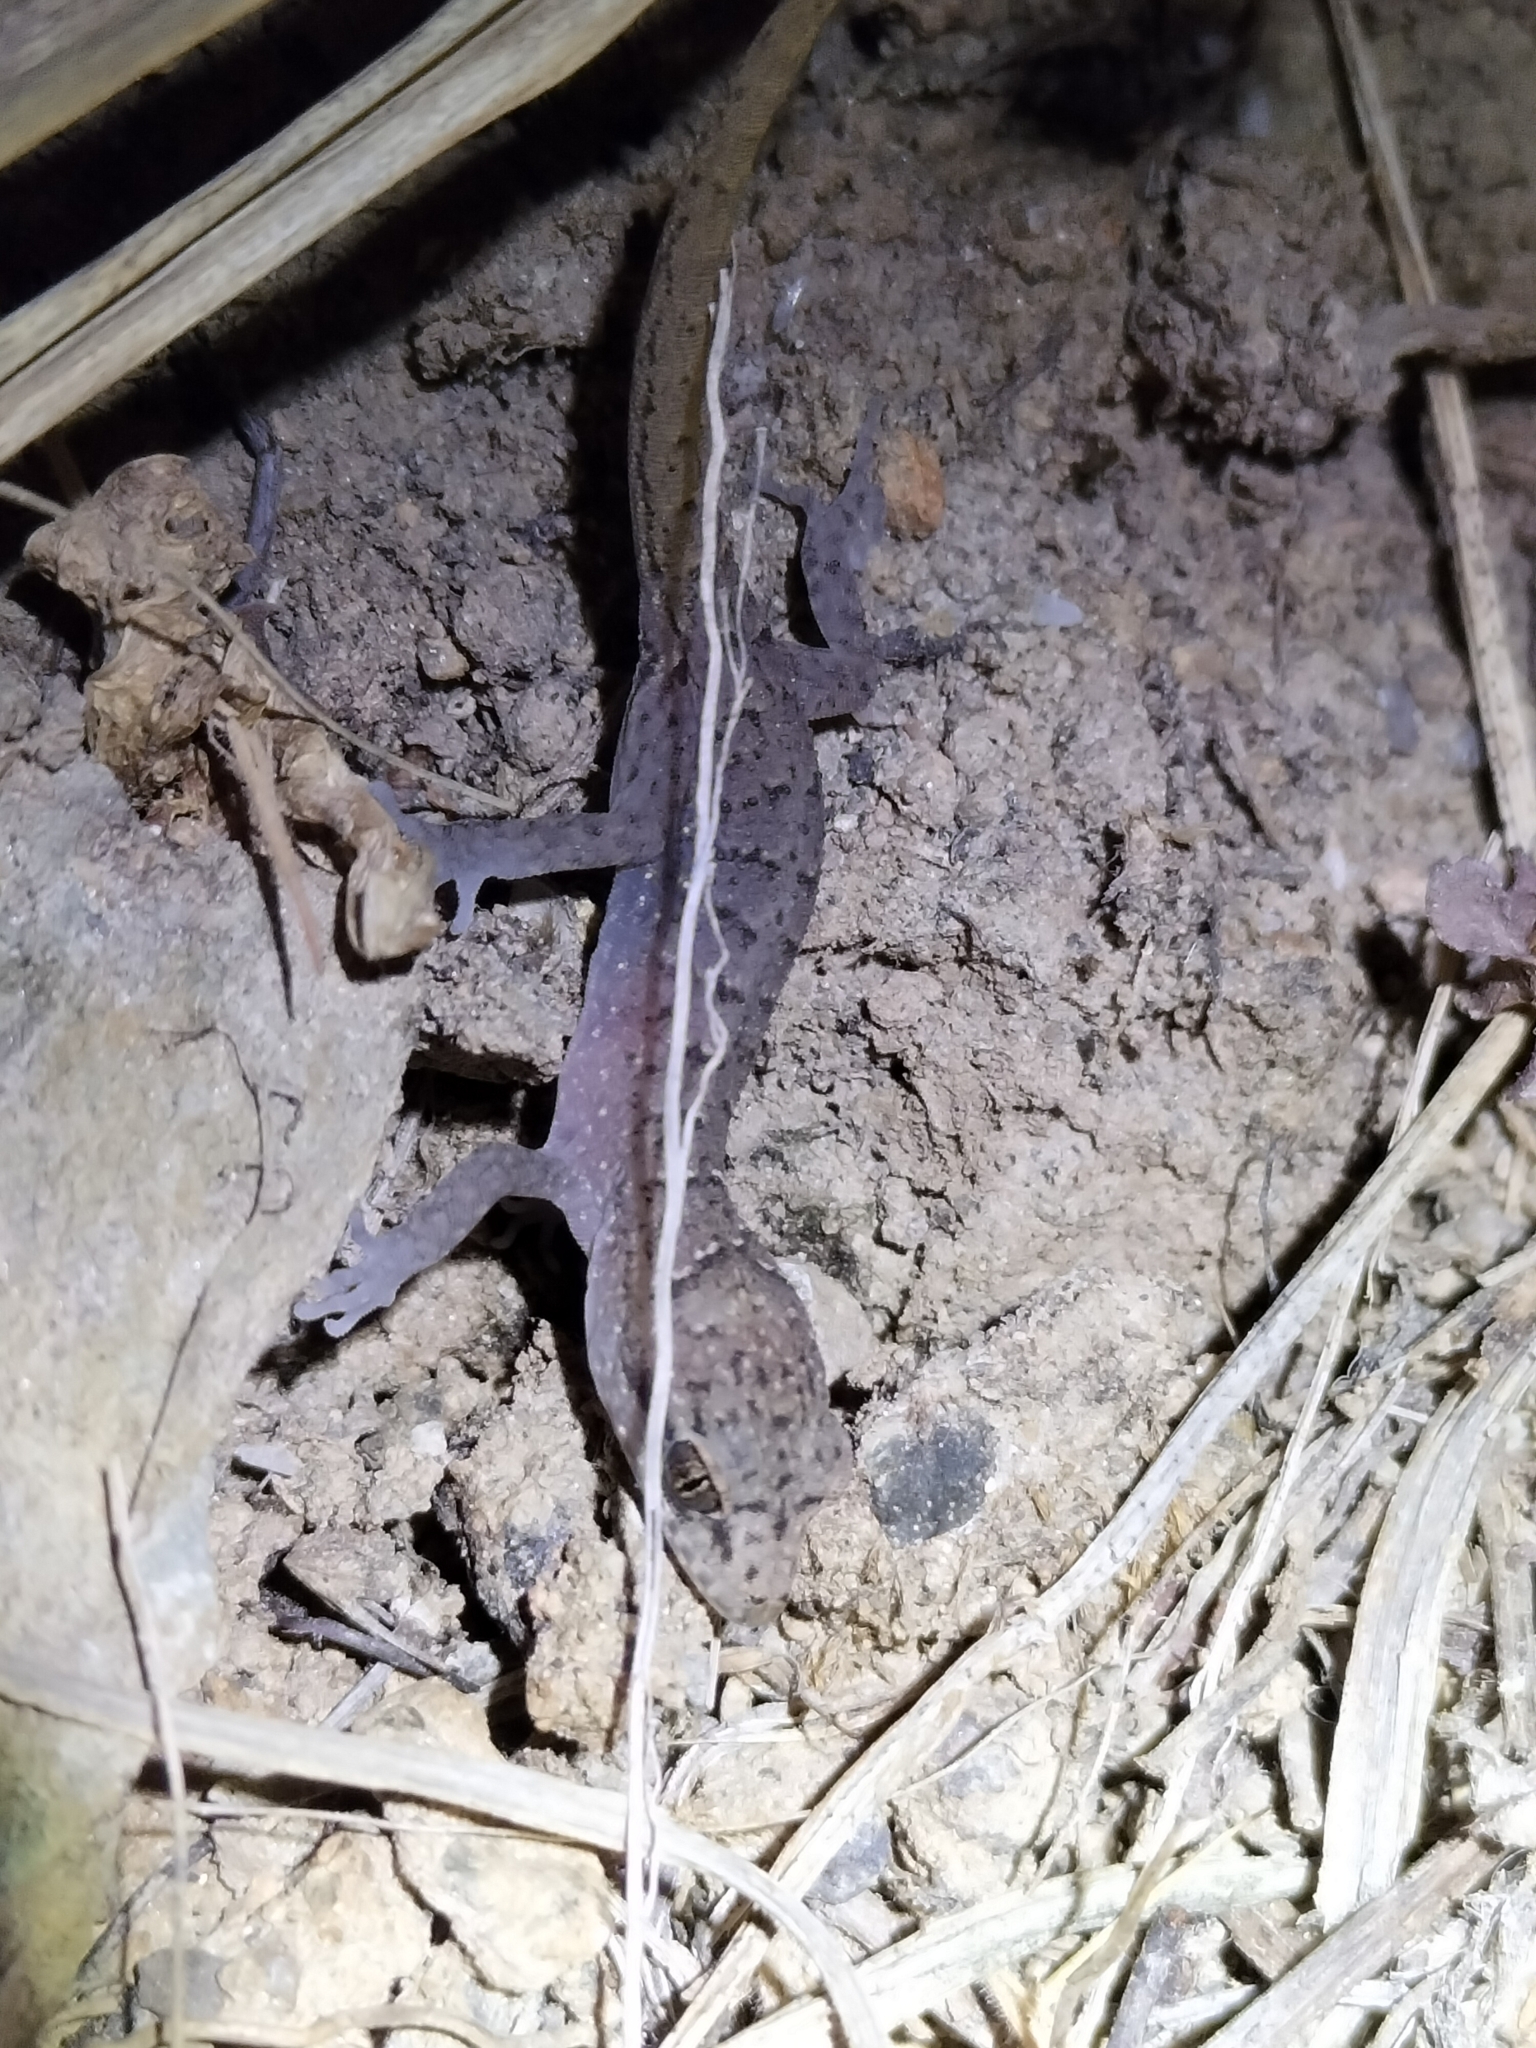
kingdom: Animalia
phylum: Chordata
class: Squamata
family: Gekkonidae
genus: Nactus
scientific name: Nactus cheverti
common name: Chevert's gecko
